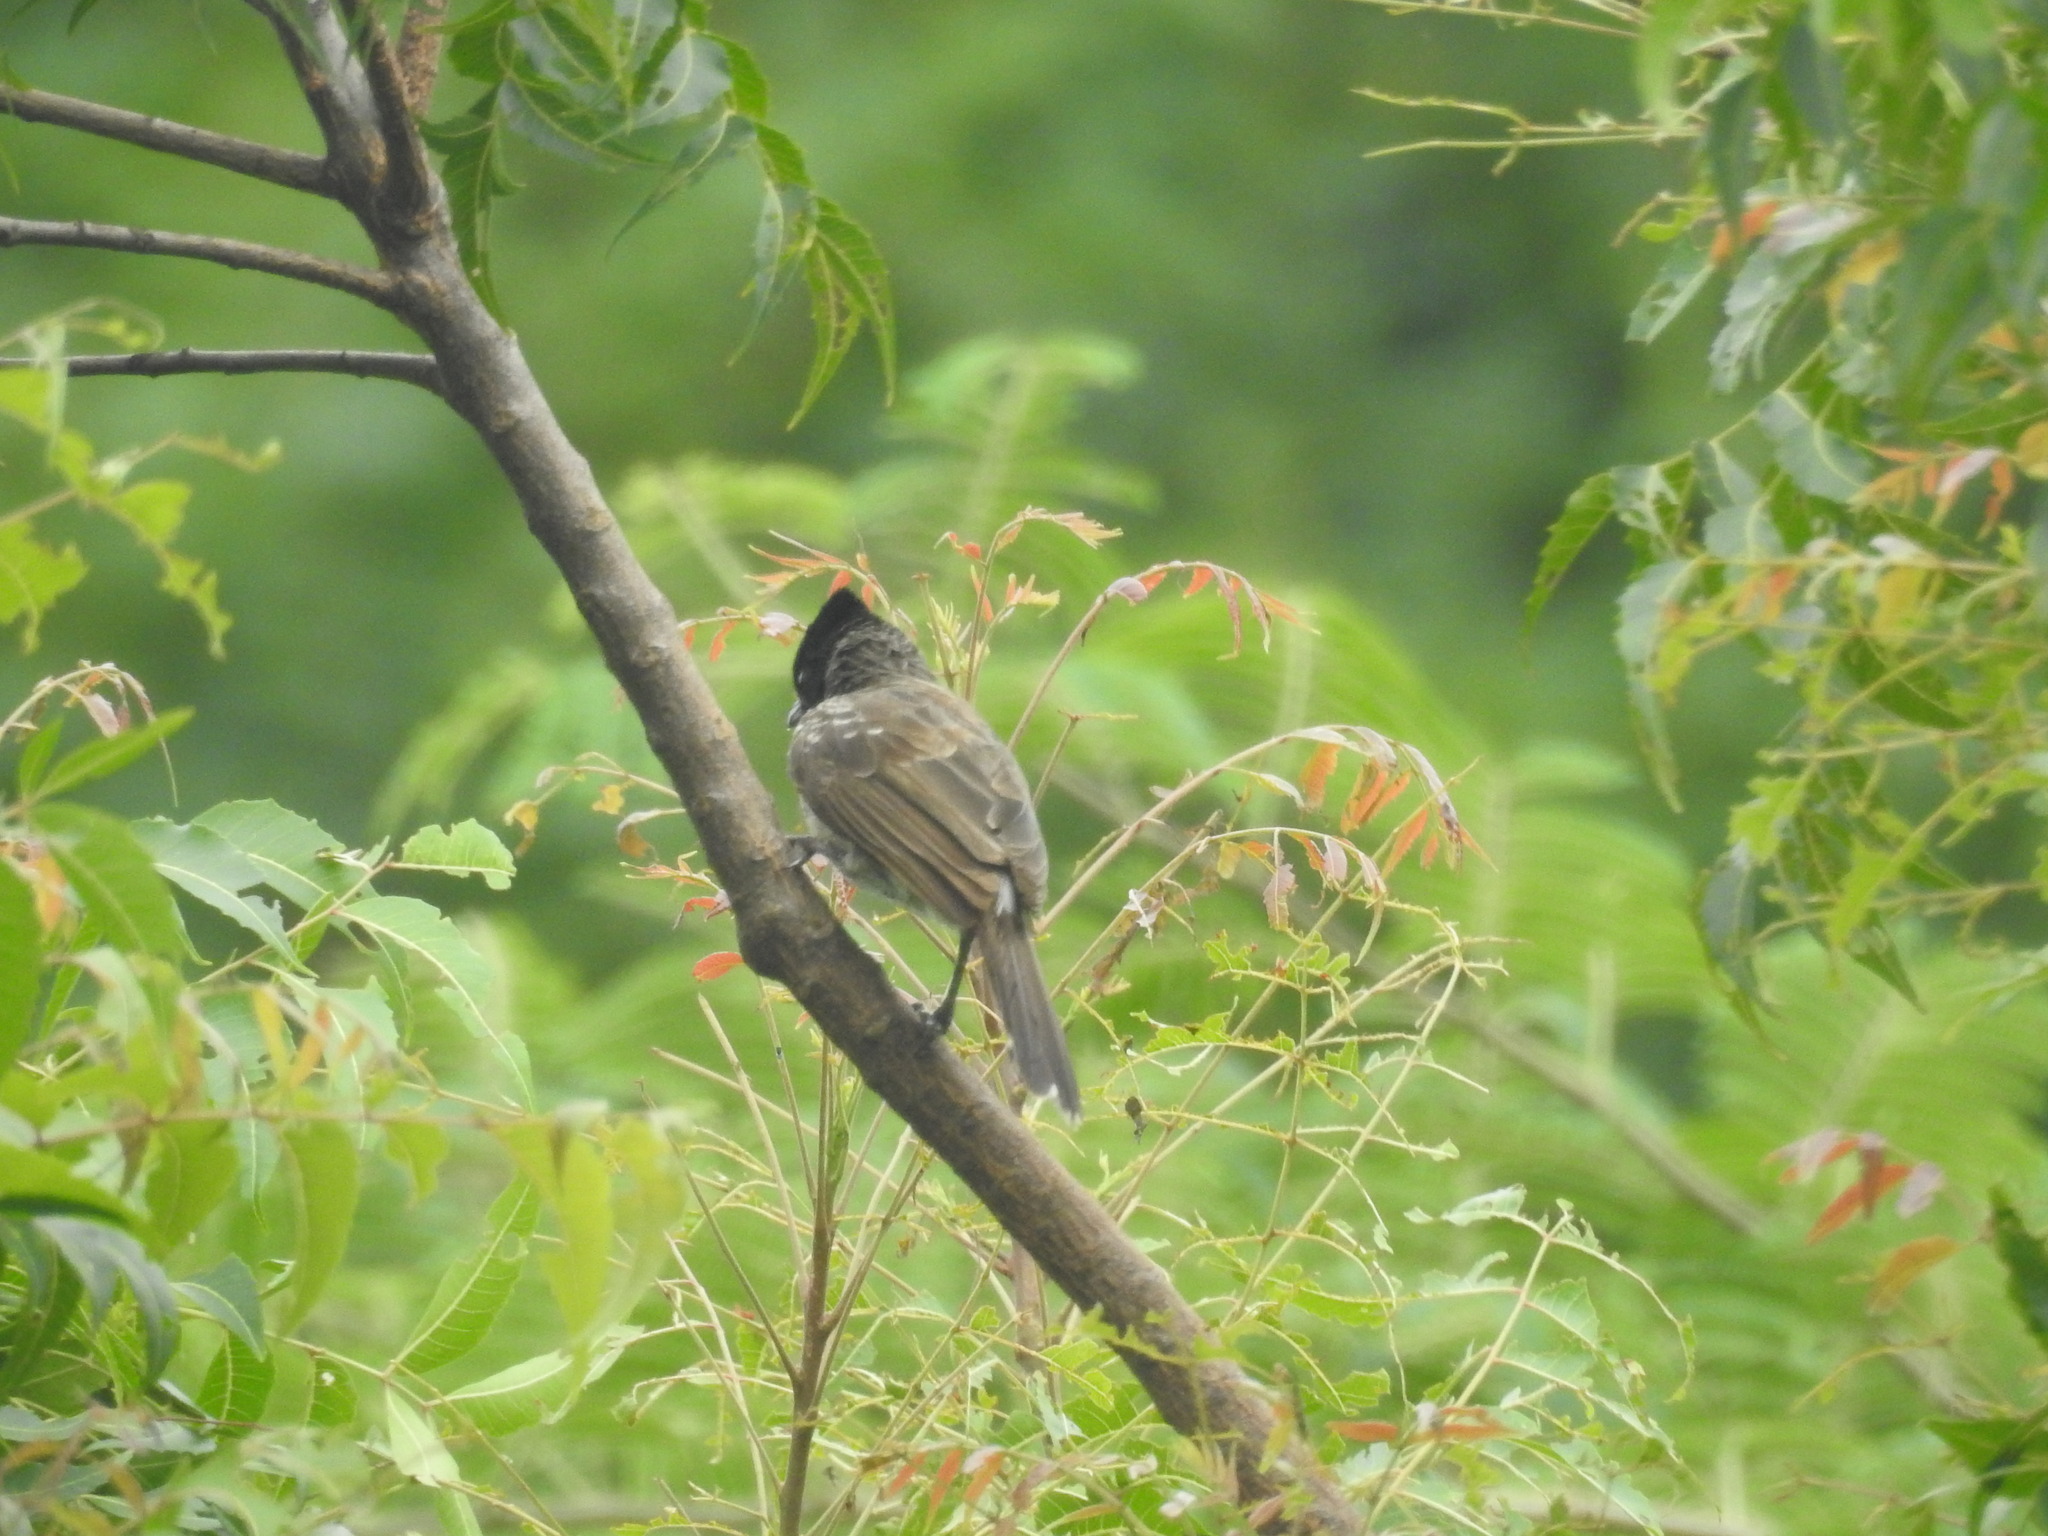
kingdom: Animalia
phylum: Chordata
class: Aves
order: Passeriformes
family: Pycnonotidae
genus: Pycnonotus
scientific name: Pycnonotus cafer
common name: Red-vented bulbul
